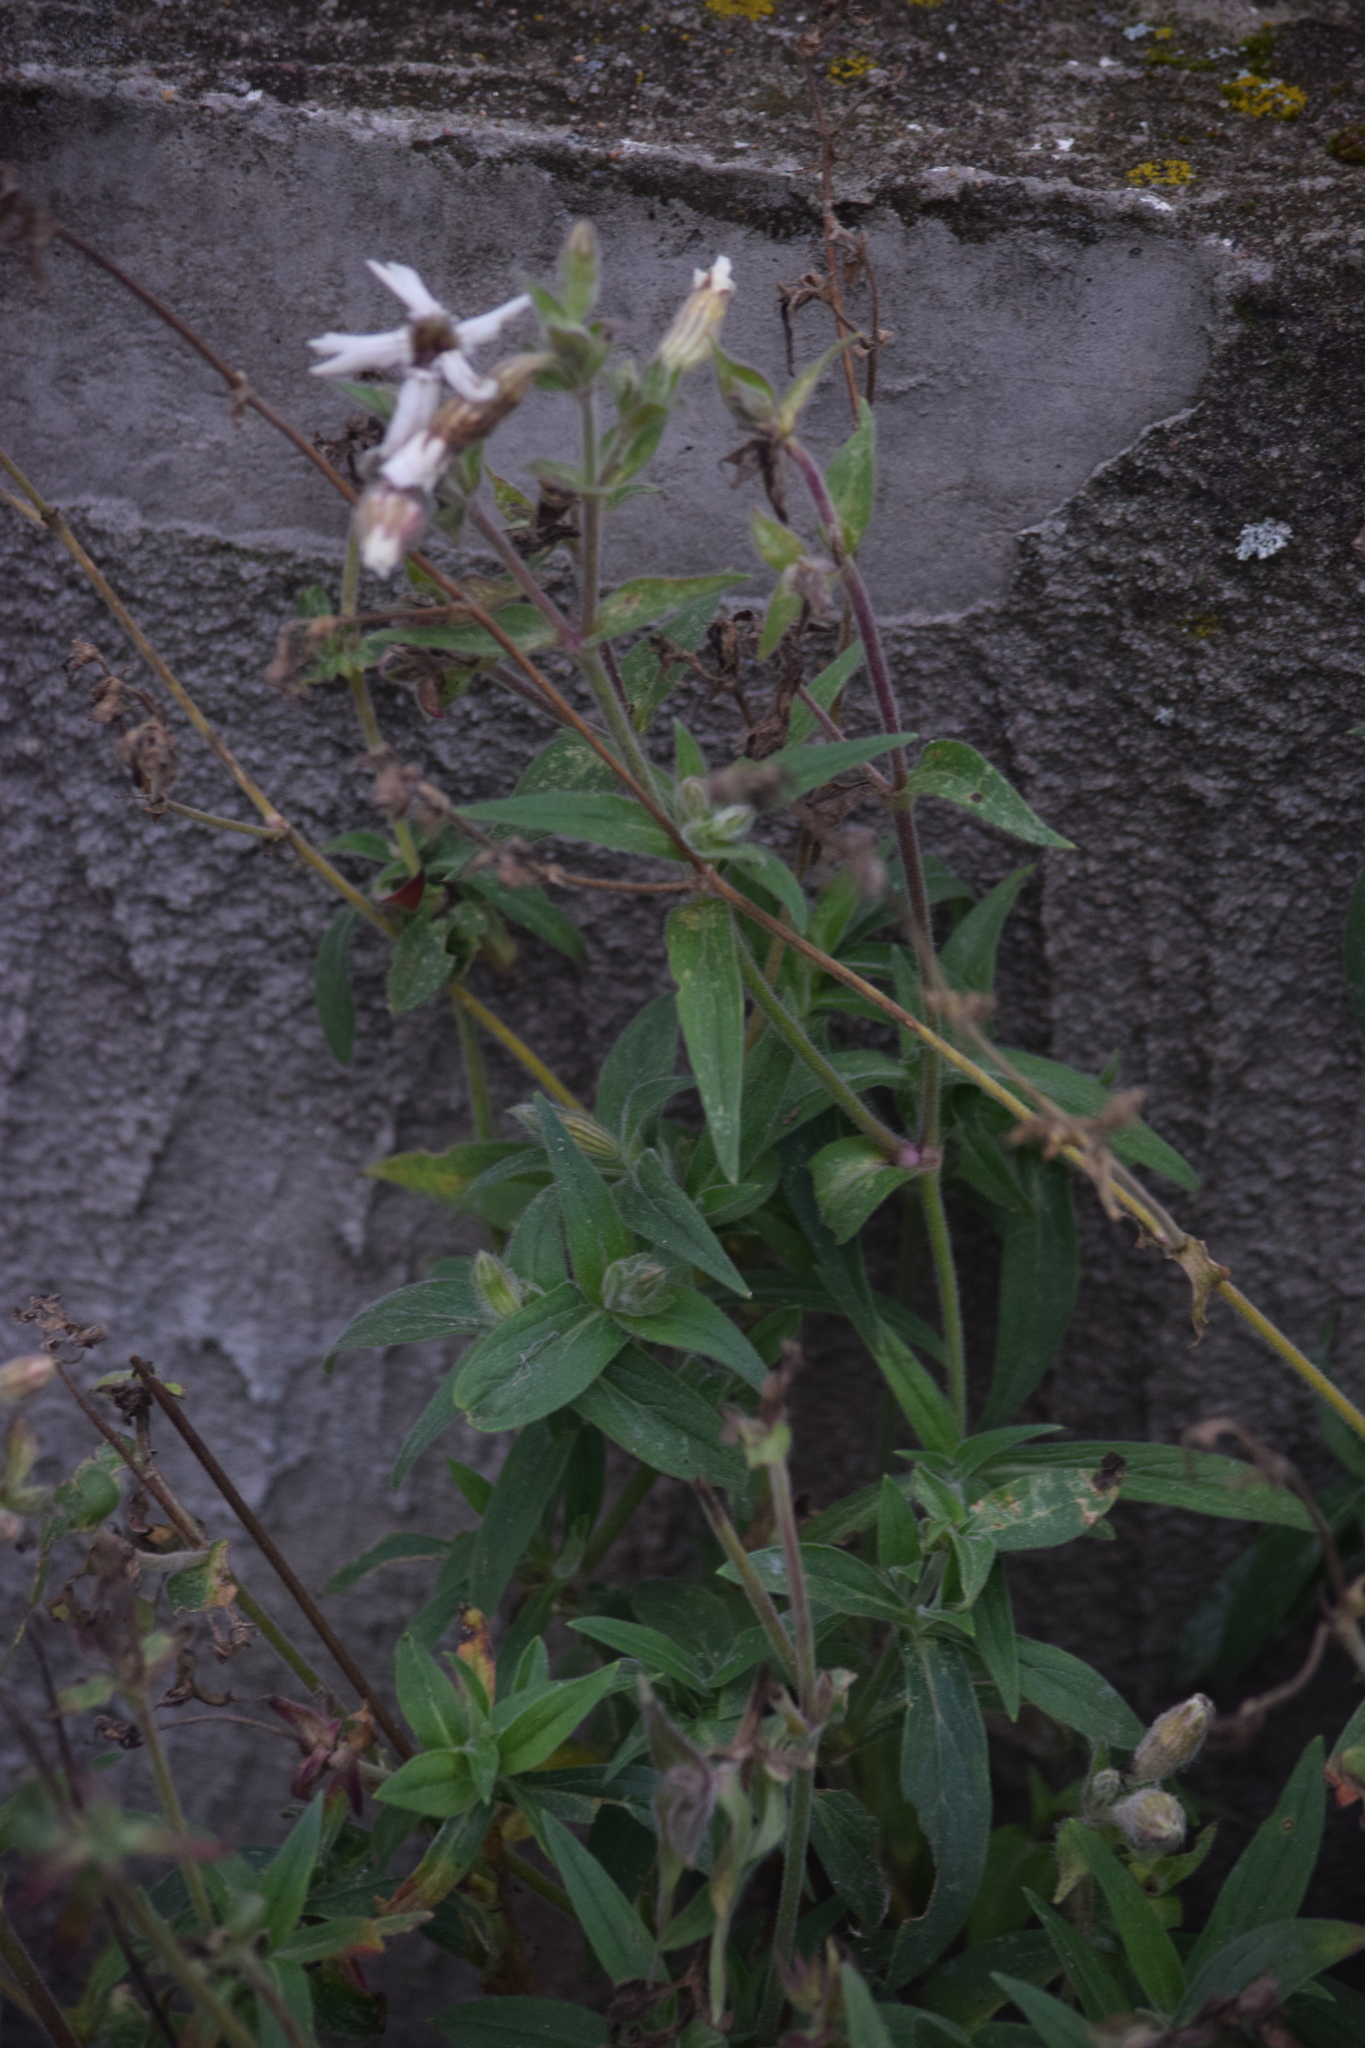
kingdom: Plantae
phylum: Tracheophyta
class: Magnoliopsida
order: Caryophyllales
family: Caryophyllaceae
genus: Silene
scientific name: Silene latifolia
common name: White campion
